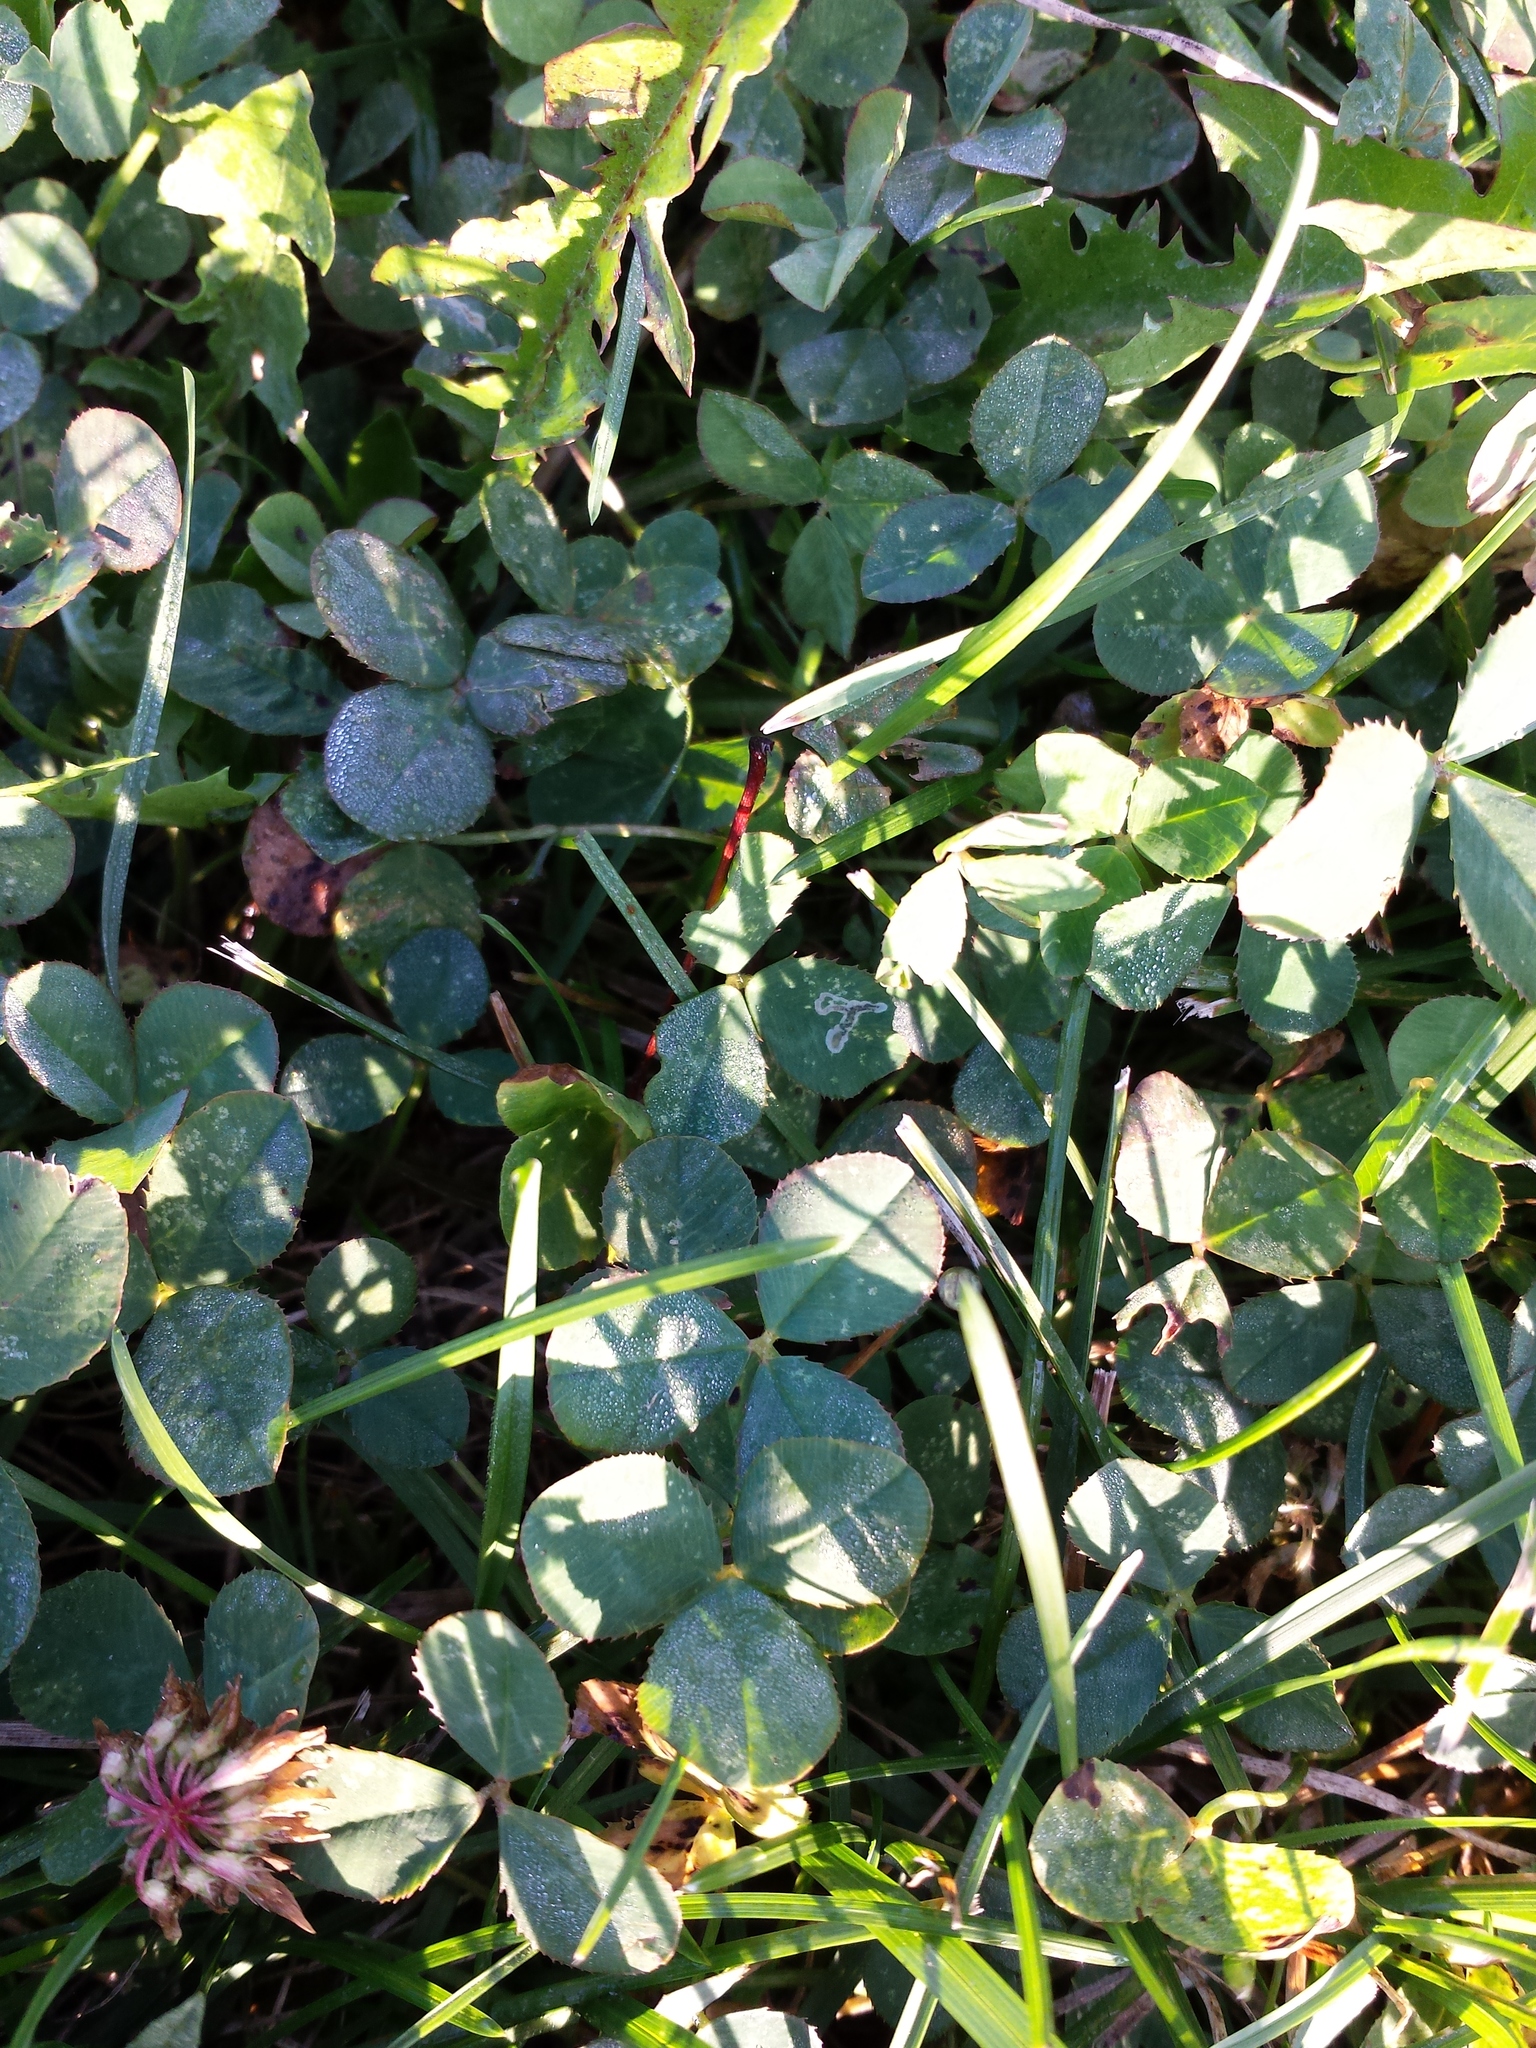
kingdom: Plantae
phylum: Tracheophyta
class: Magnoliopsida
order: Fabales
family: Fabaceae
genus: Trifolium
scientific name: Trifolium repens
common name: White clover
